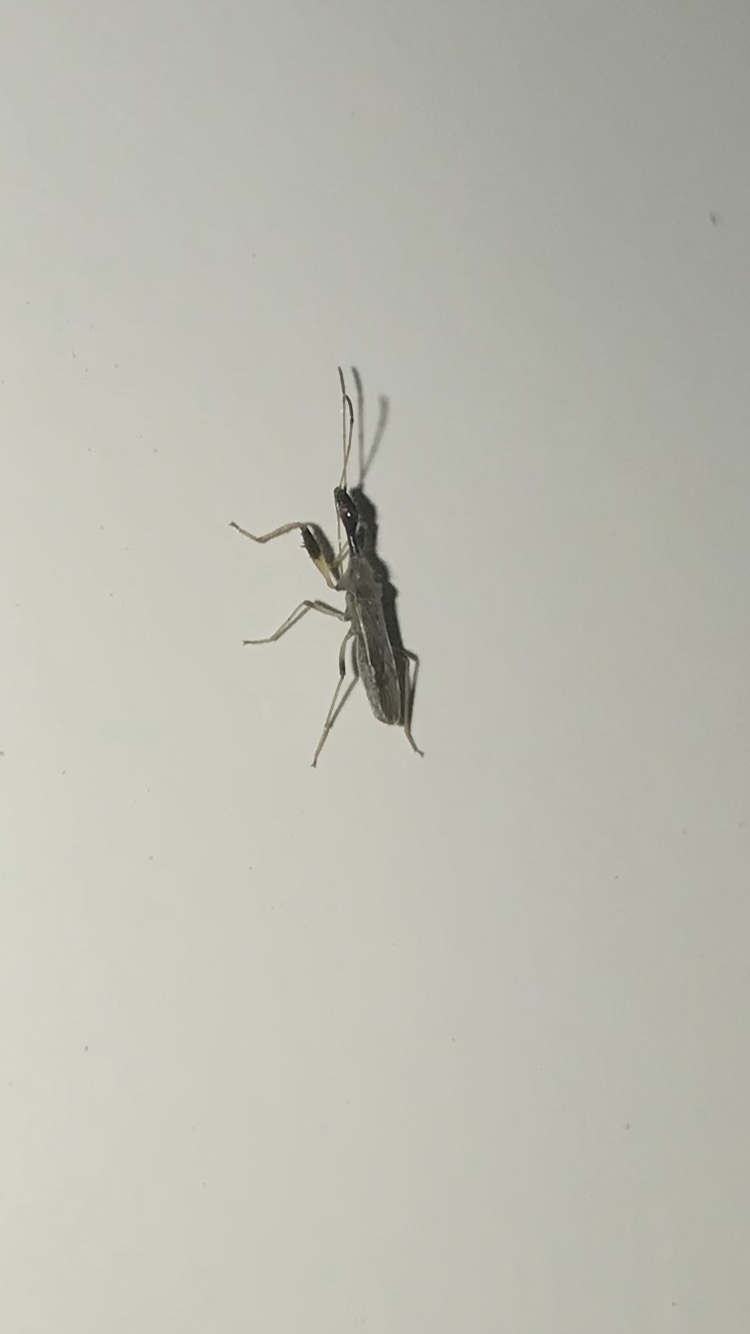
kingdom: Animalia
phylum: Arthropoda
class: Insecta
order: Hemiptera
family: Rhyparochromidae
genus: Myodocha
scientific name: Myodocha serripes
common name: Long-necked seed bug
